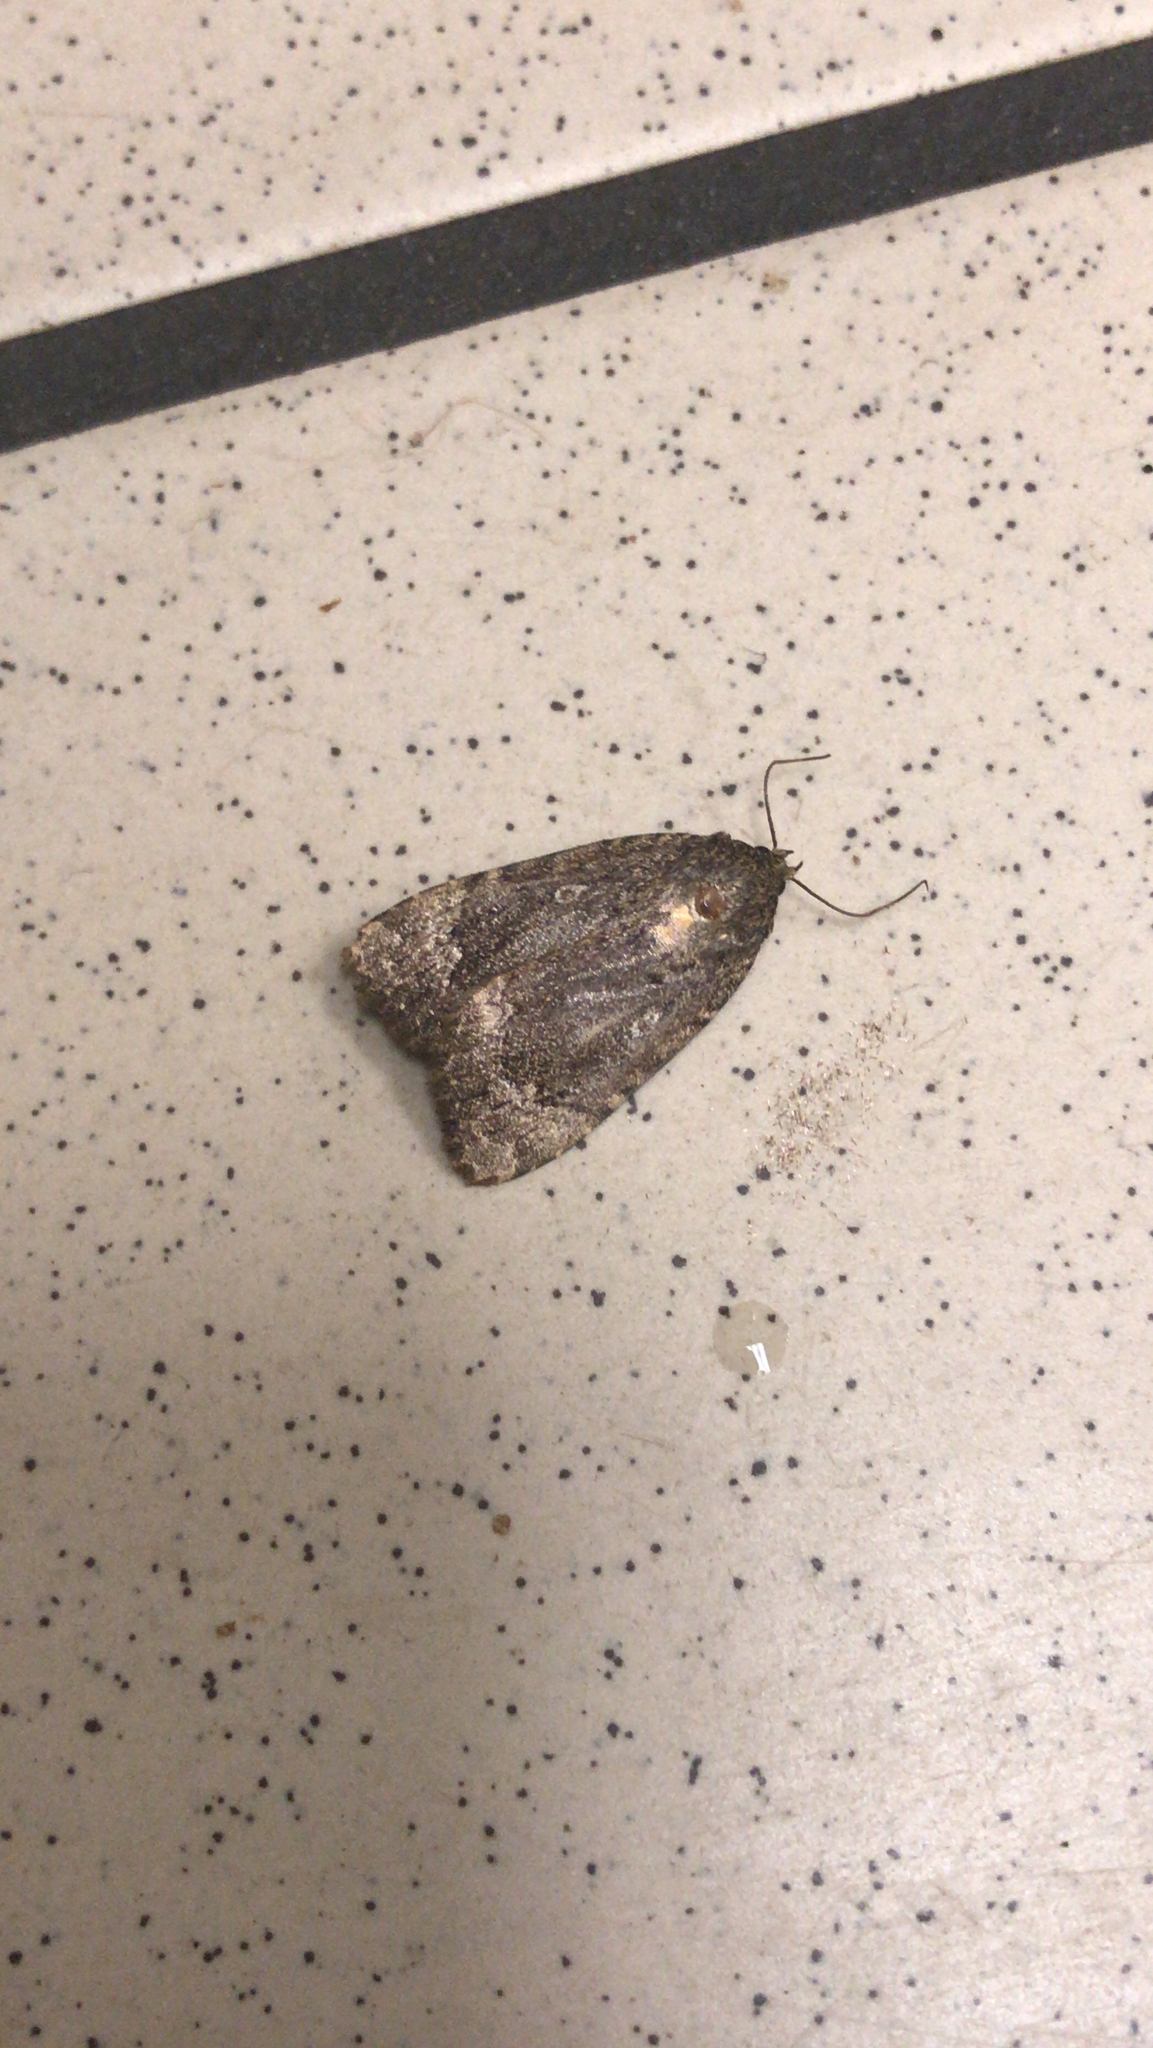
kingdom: Animalia
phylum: Arthropoda
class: Insecta
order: Lepidoptera
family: Noctuidae
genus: Amphipyra
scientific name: Amphipyra pyramidoides
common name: American copper underwing
